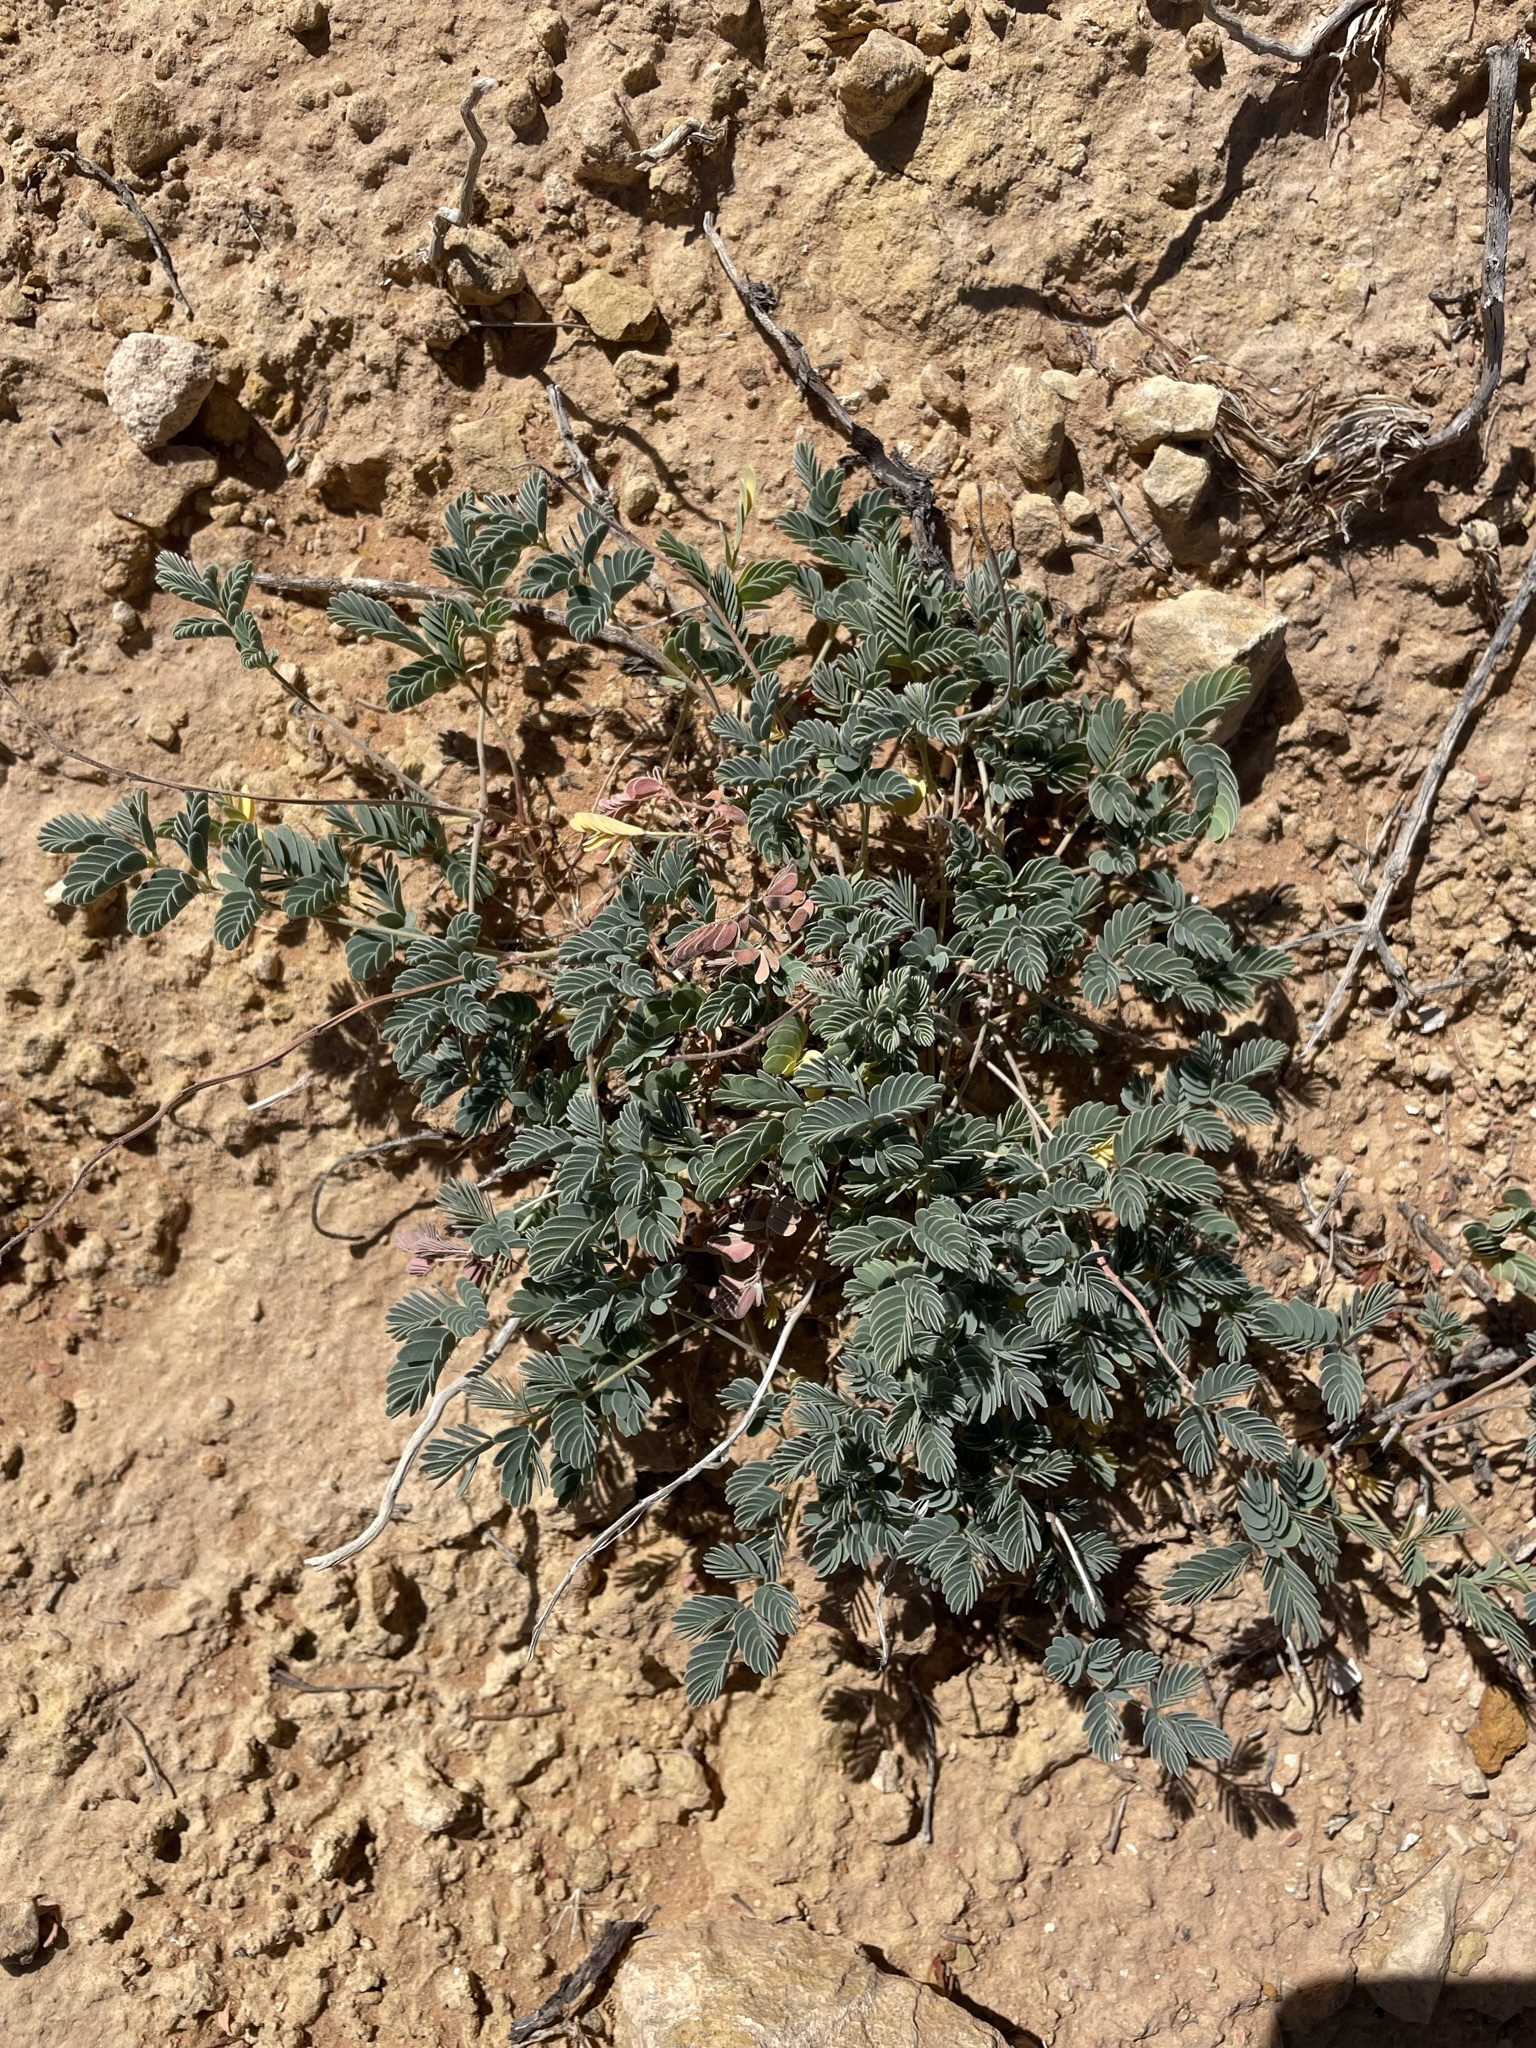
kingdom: Plantae
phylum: Tracheophyta
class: Magnoliopsida
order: Fabales
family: Fabaceae
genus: Hoffmannseggia
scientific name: Hoffmannseggia repens
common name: Creeping rush-pea
